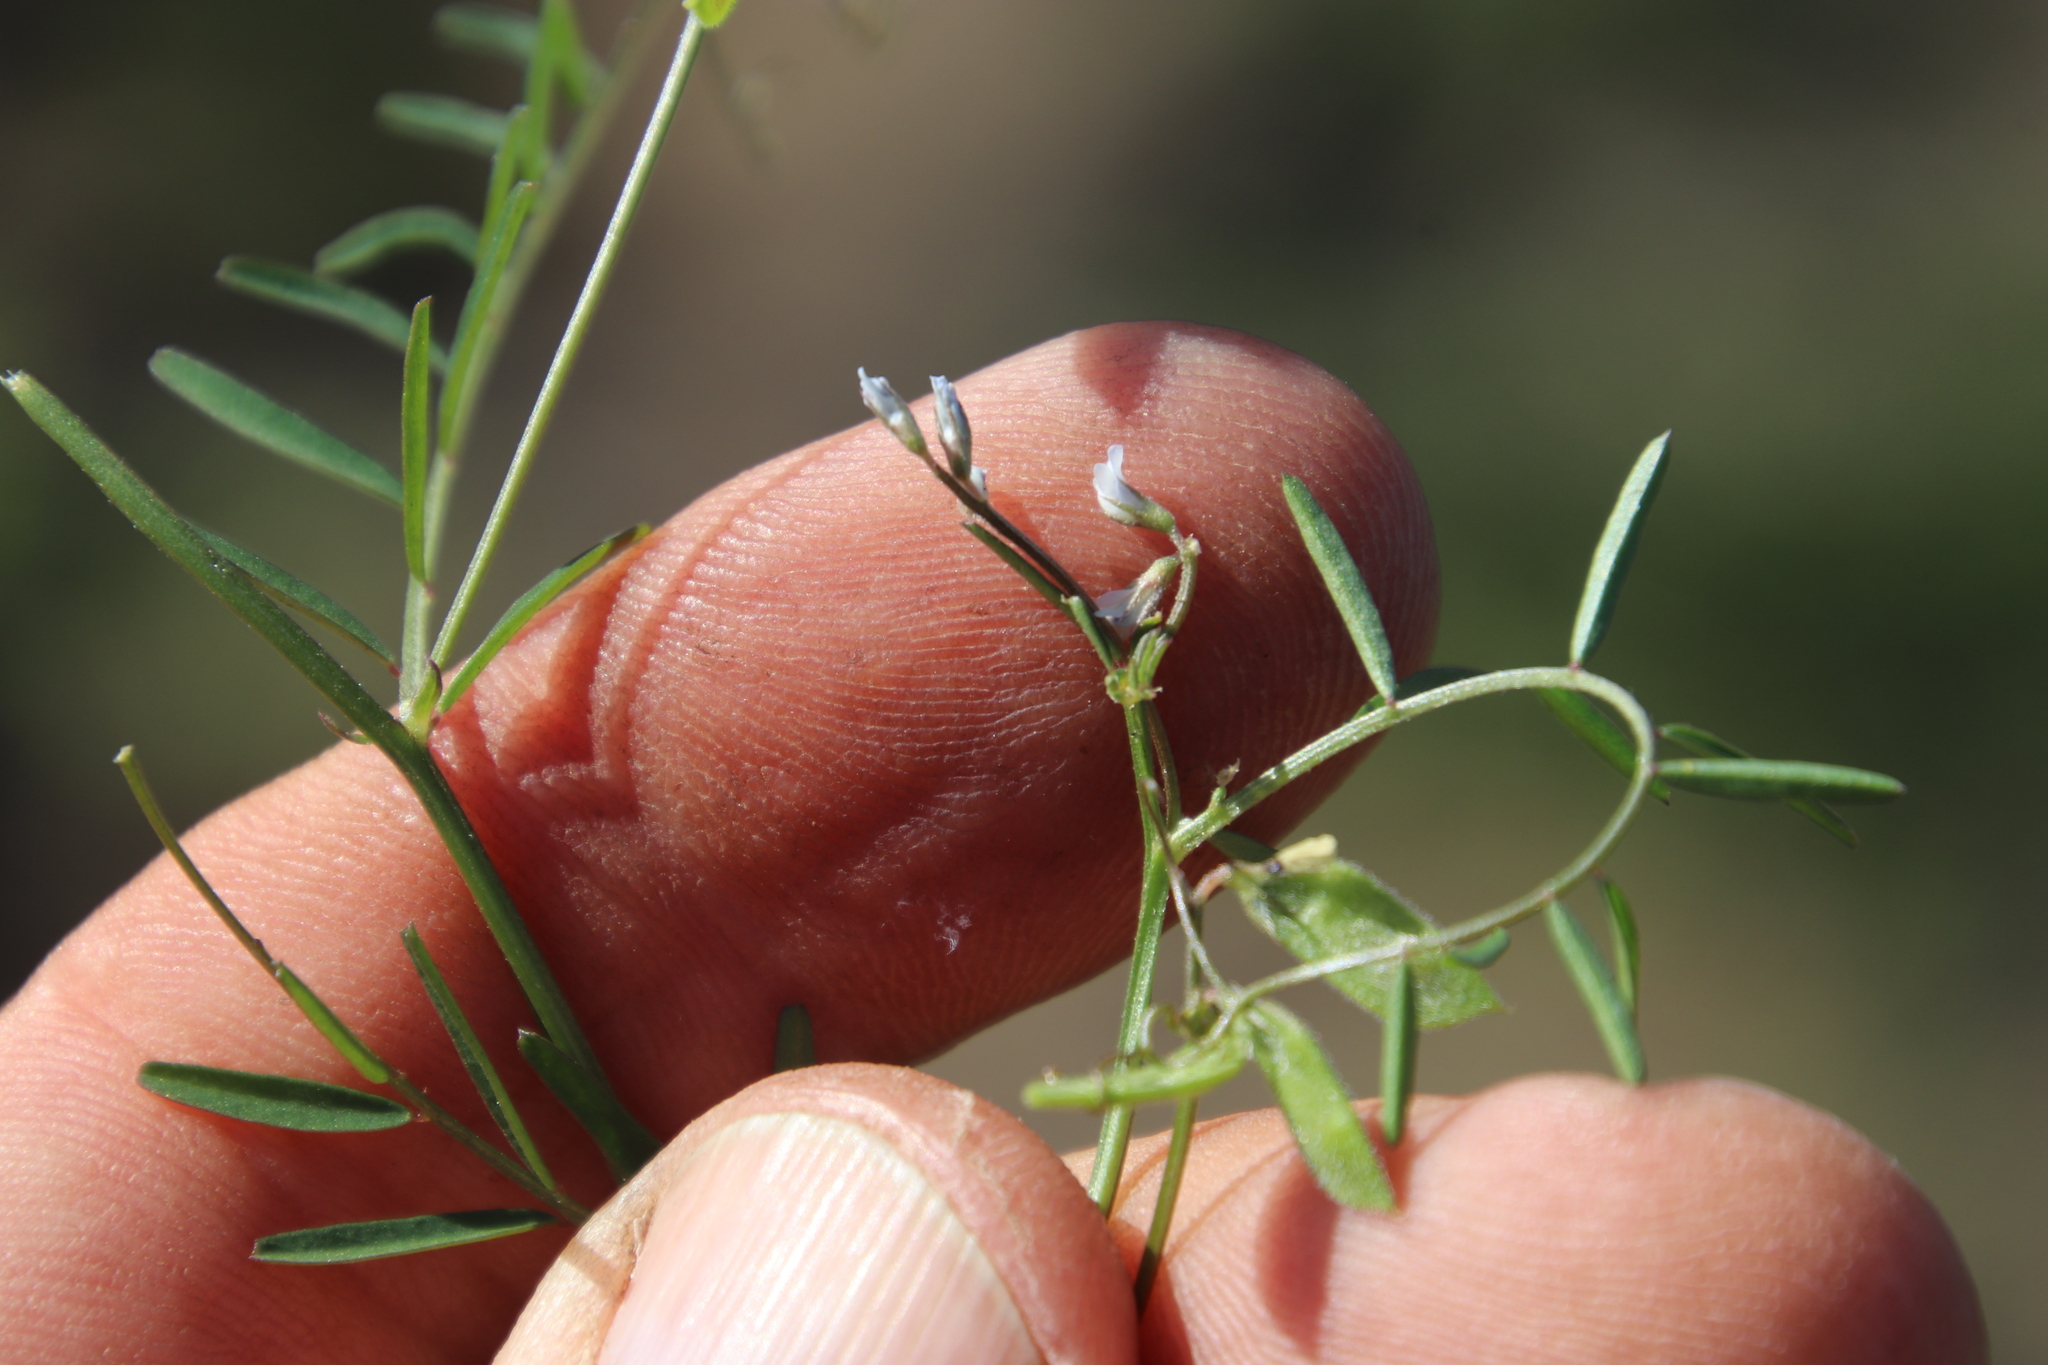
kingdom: Plantae
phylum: Tracheophyta
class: Magnoliopsida
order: Fabales
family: Fabaceae
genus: Vicia
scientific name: Vicia hirsuta
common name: Tiny vetch
